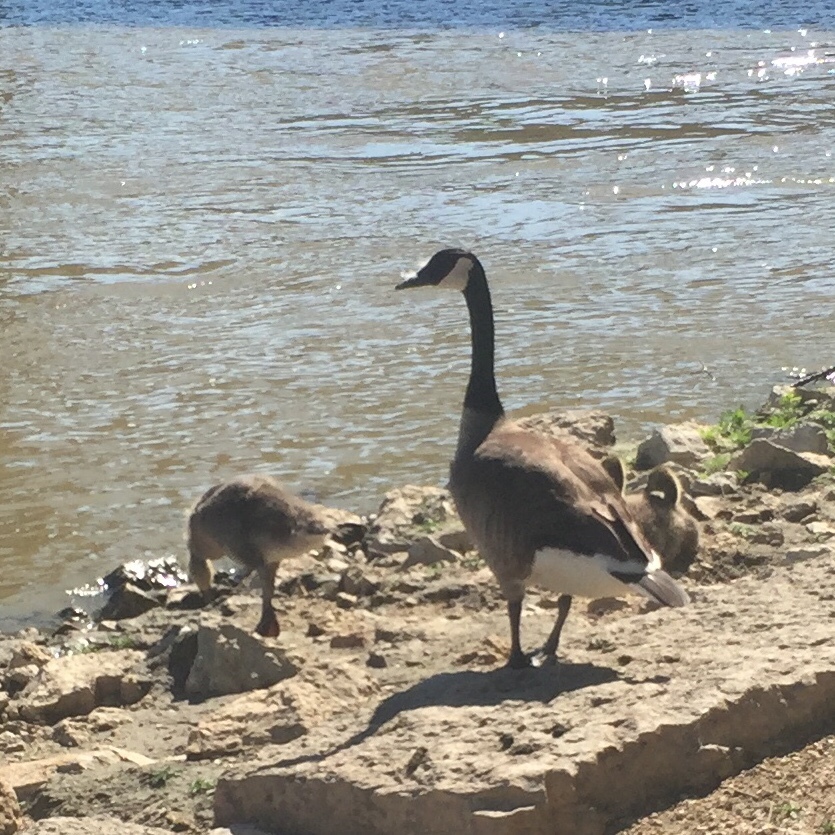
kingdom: Animalia
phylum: Chordata
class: Aves
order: Anseriformes
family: Anatidae
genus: Branta
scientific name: Branta canadensis
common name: Canada goose
